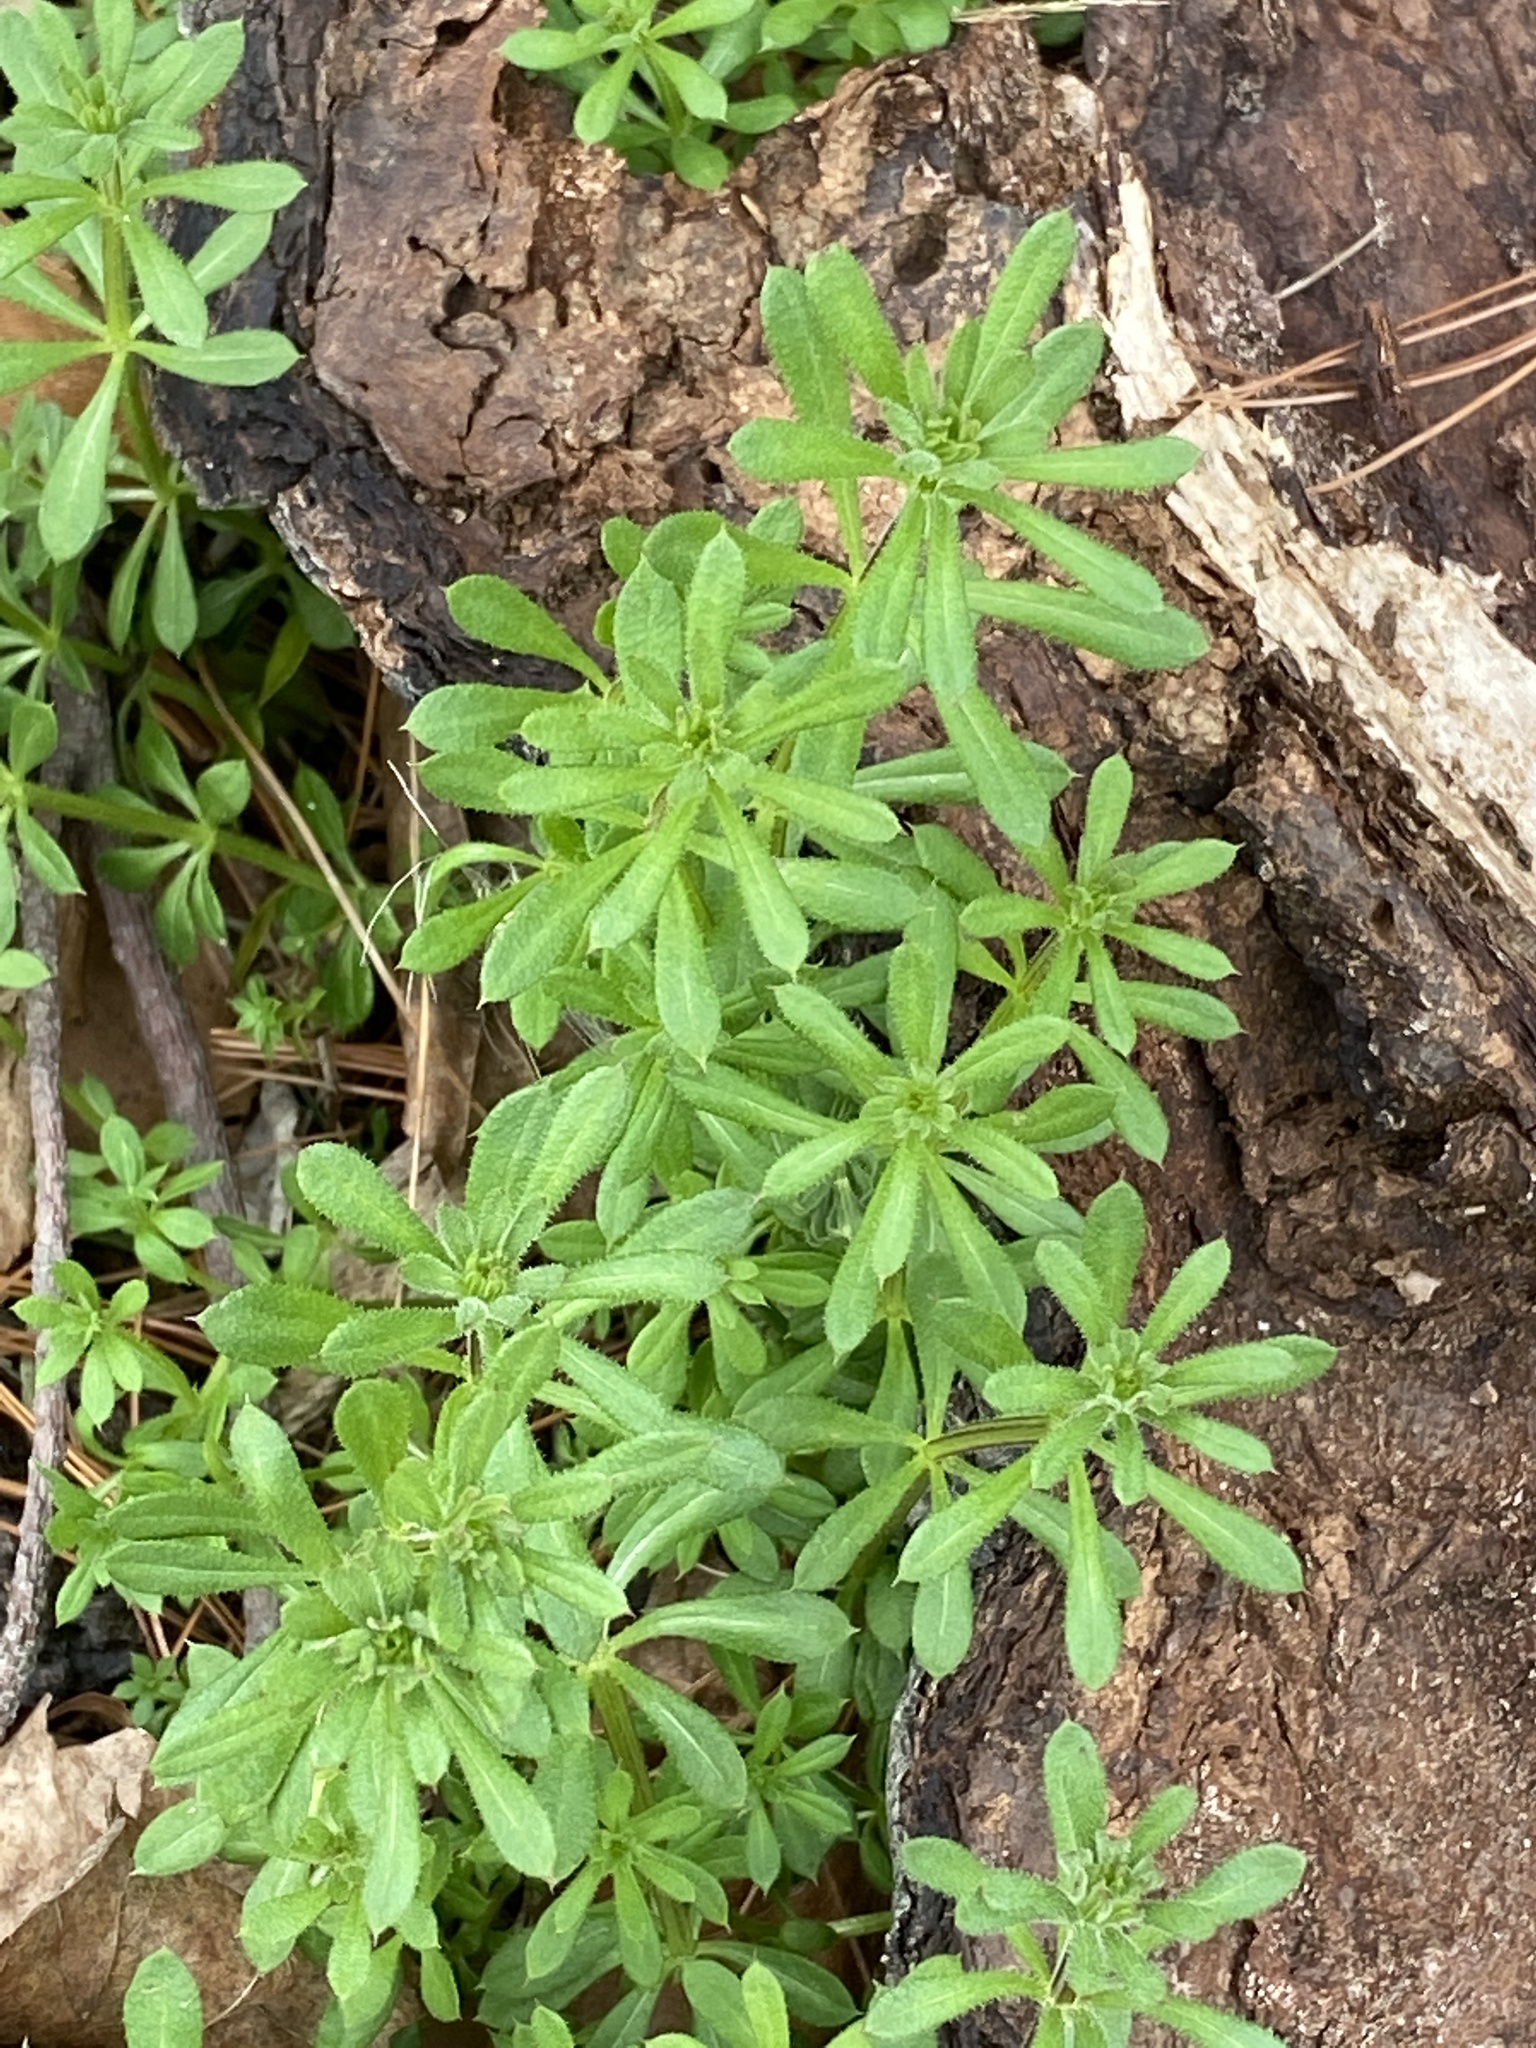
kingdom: Plantae
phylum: Tracheophyta
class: Magnoliopsida
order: Gentianales
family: Rubiaceae
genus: Galium
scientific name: Galium aparine
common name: Cleavers
